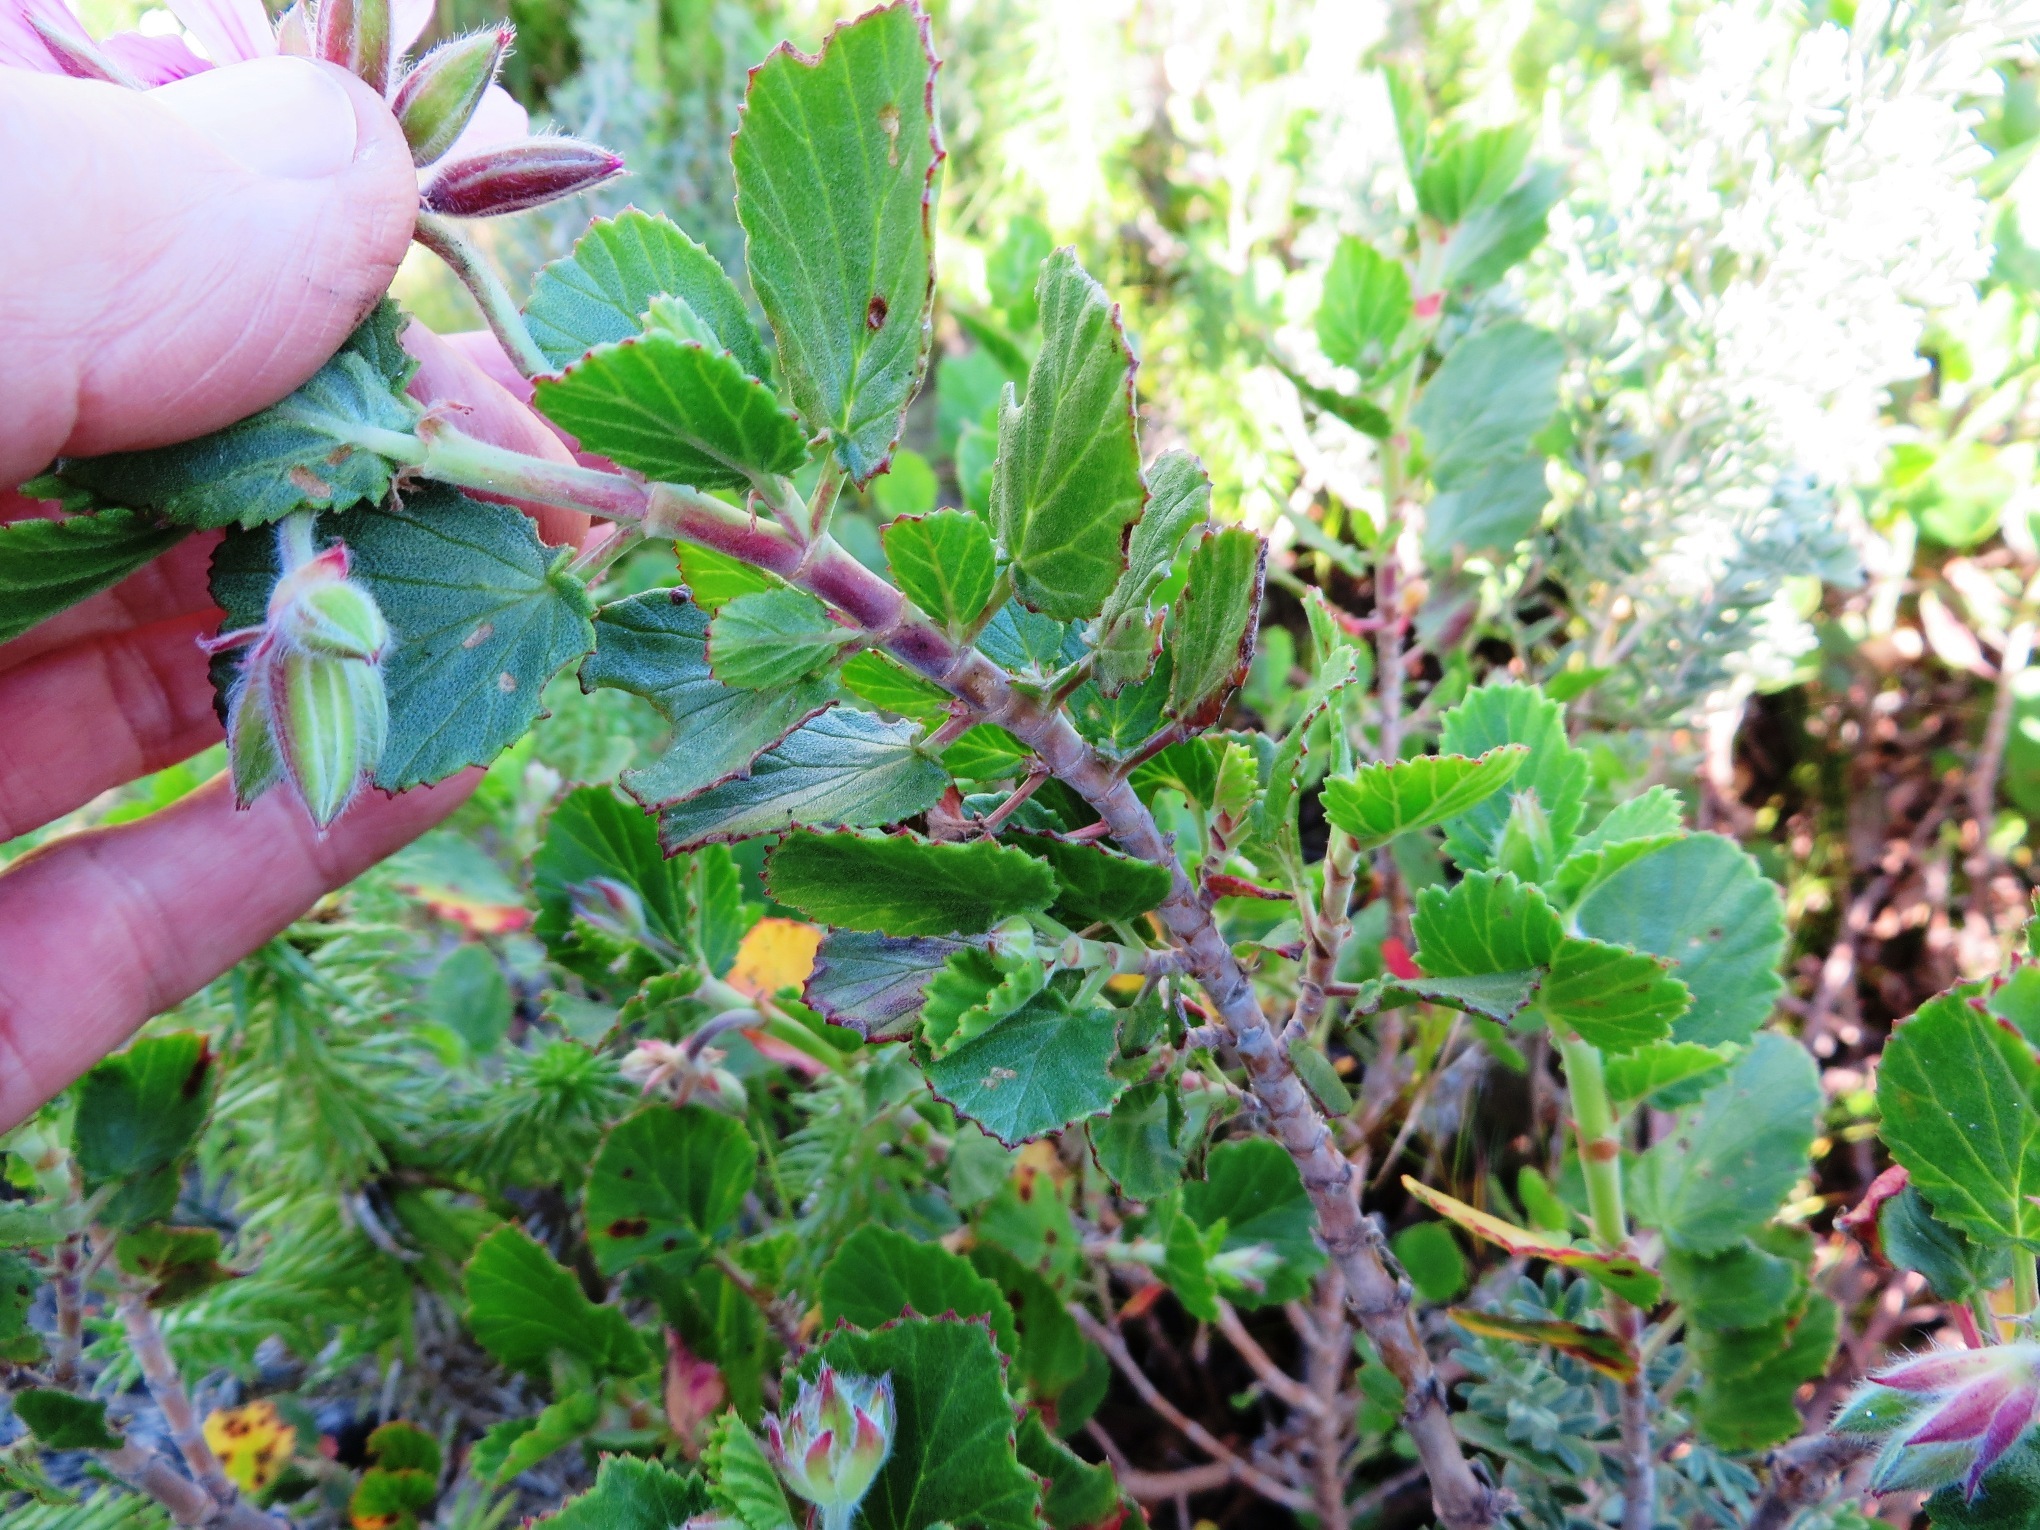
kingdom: Plantae
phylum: Tracheophyta
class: Magnoliopsida
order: Geraniales
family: Geraniaceae
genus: Pelargonium
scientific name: Pelargonium betulinum
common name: Birch-leaf pelargonium
